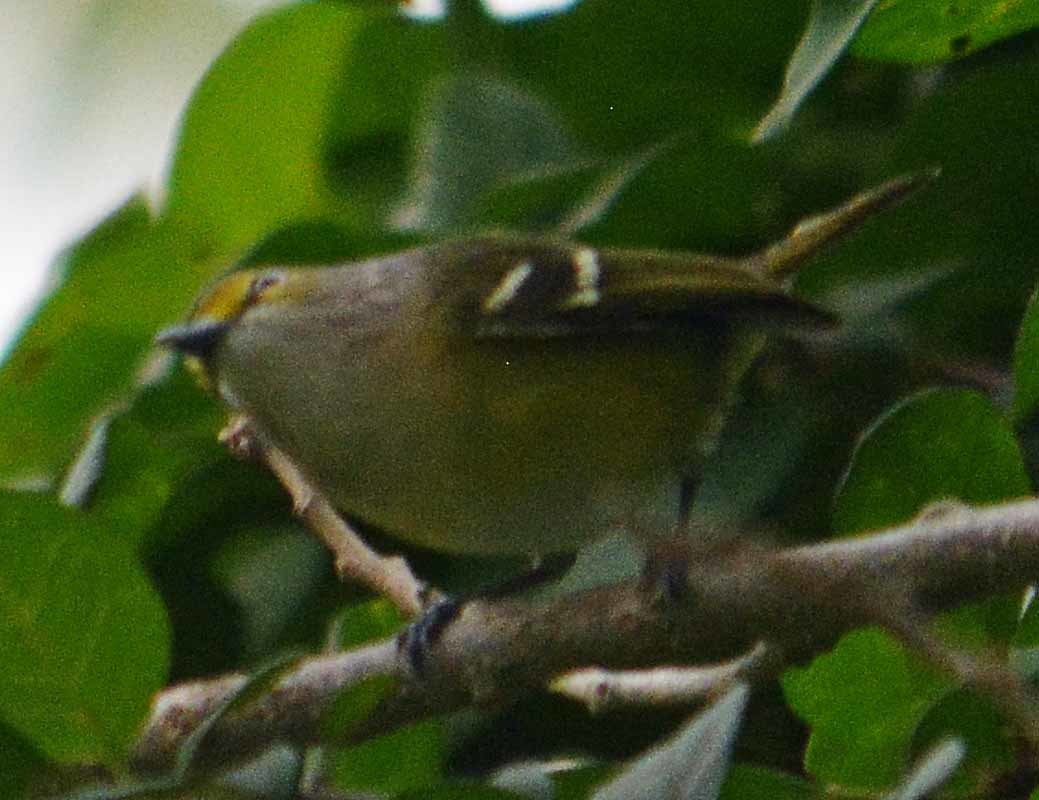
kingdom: Animalia
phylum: Chordata
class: Aves
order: Passeriformes
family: Vireonidae
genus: Vireo
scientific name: Vireo griseus
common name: White-eyed vireo
